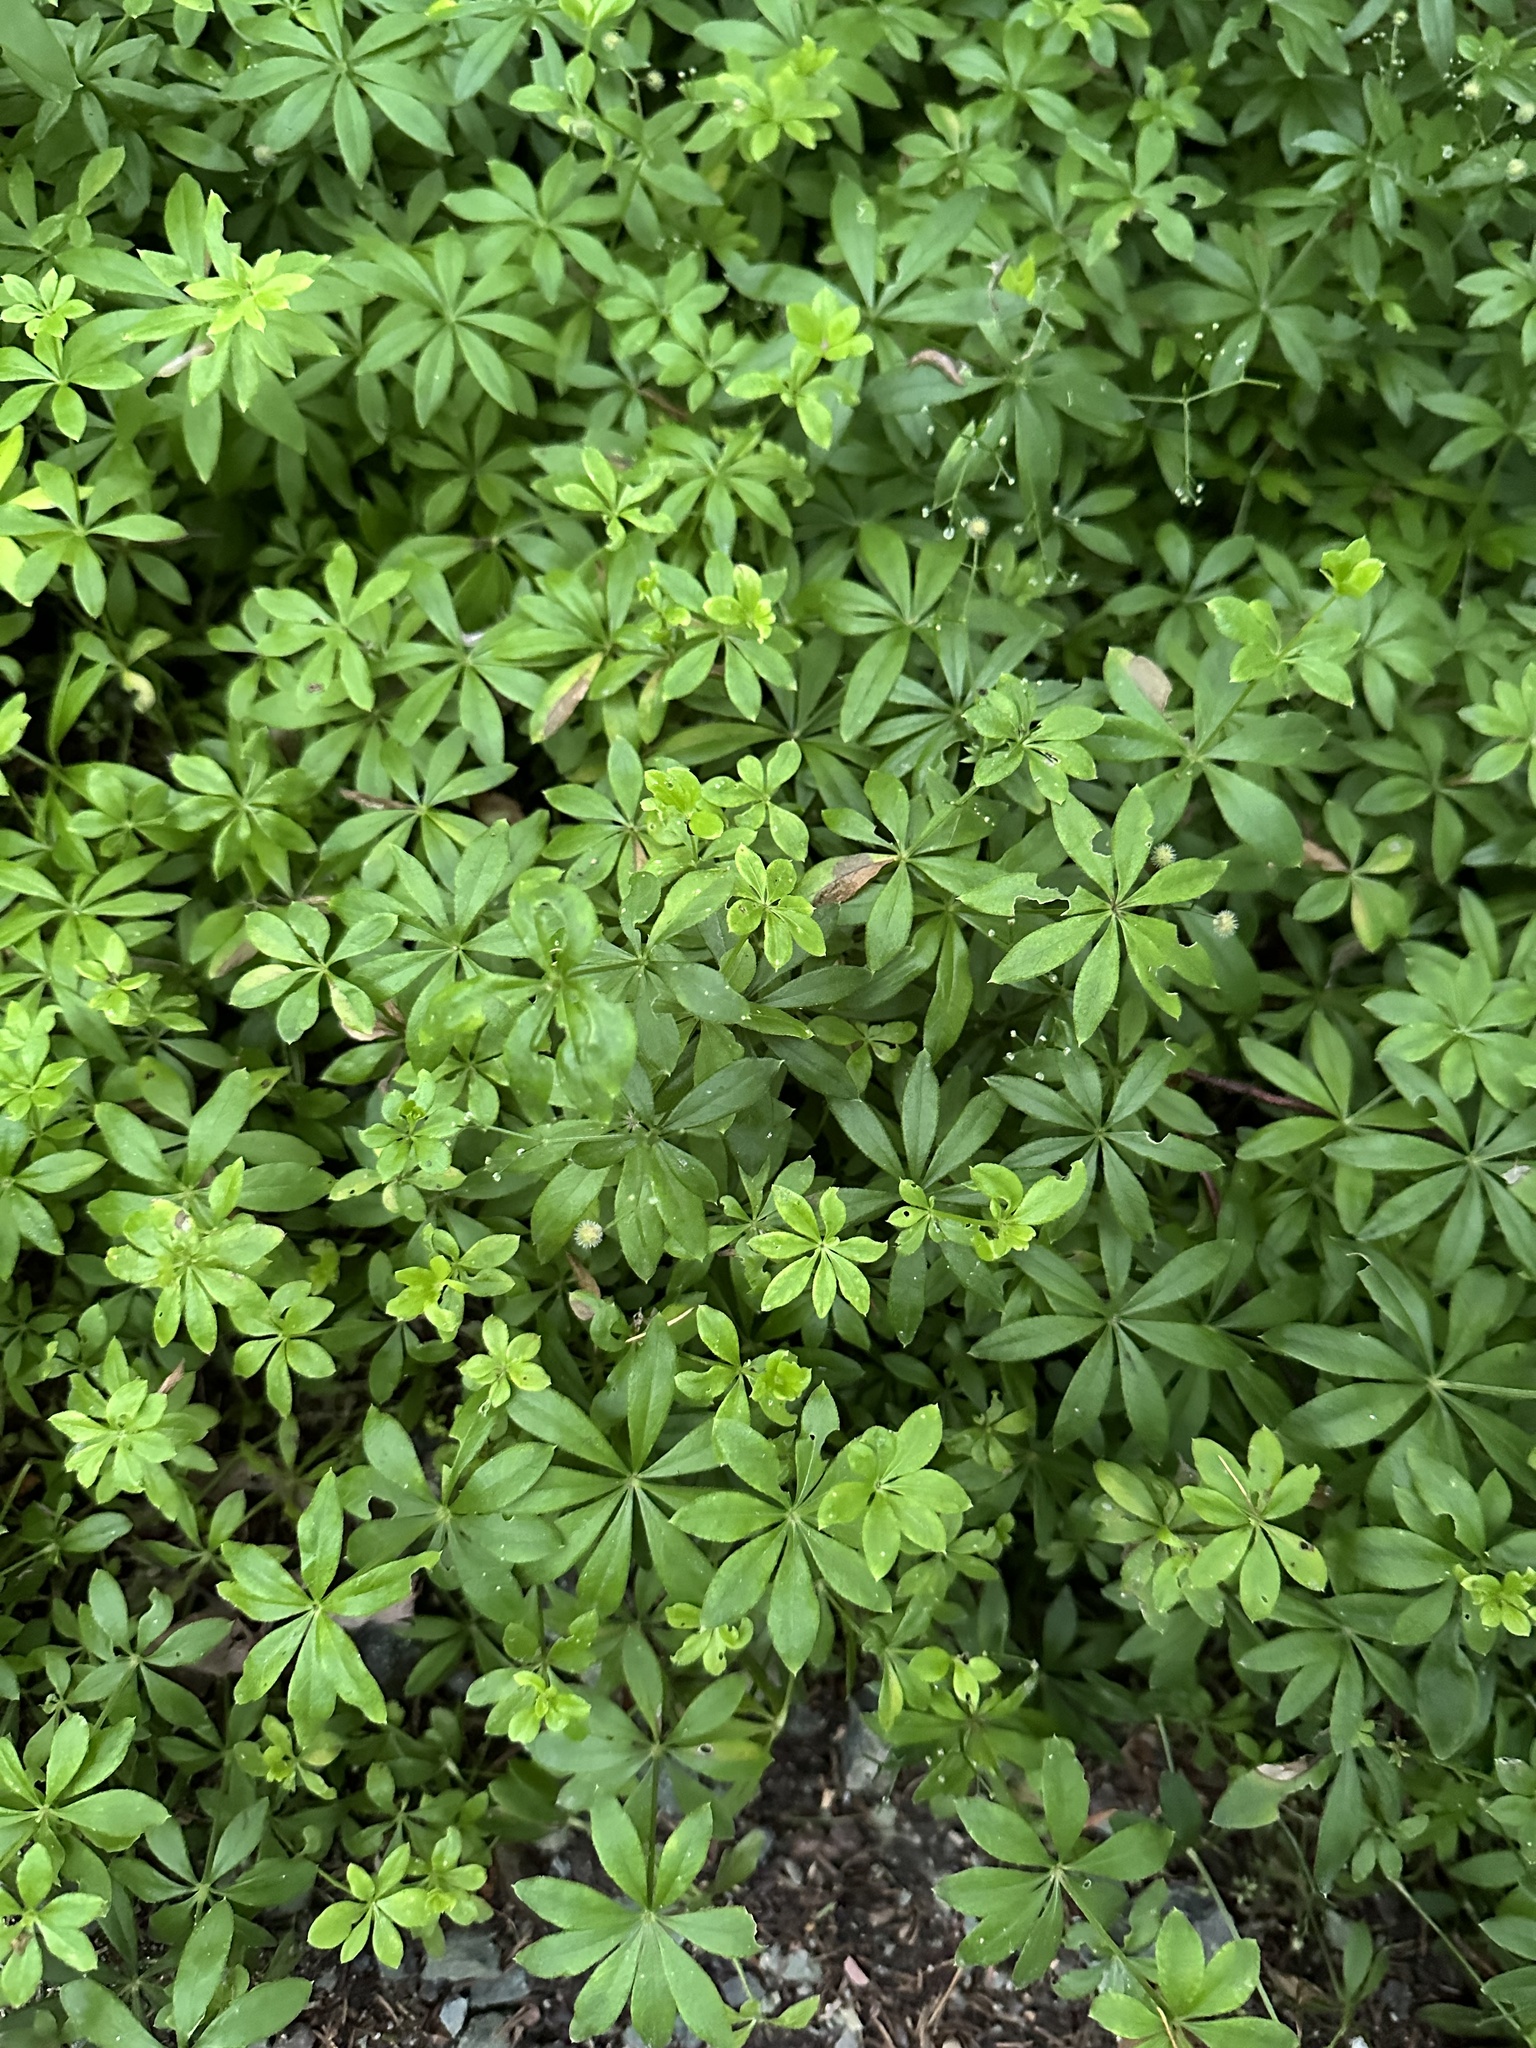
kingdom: Plantae
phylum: Tracheophyta
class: Magnoliopsida
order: Gentianales
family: Rubiaceae
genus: Galium
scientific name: Galium odoratum
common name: Sweet woodruff
